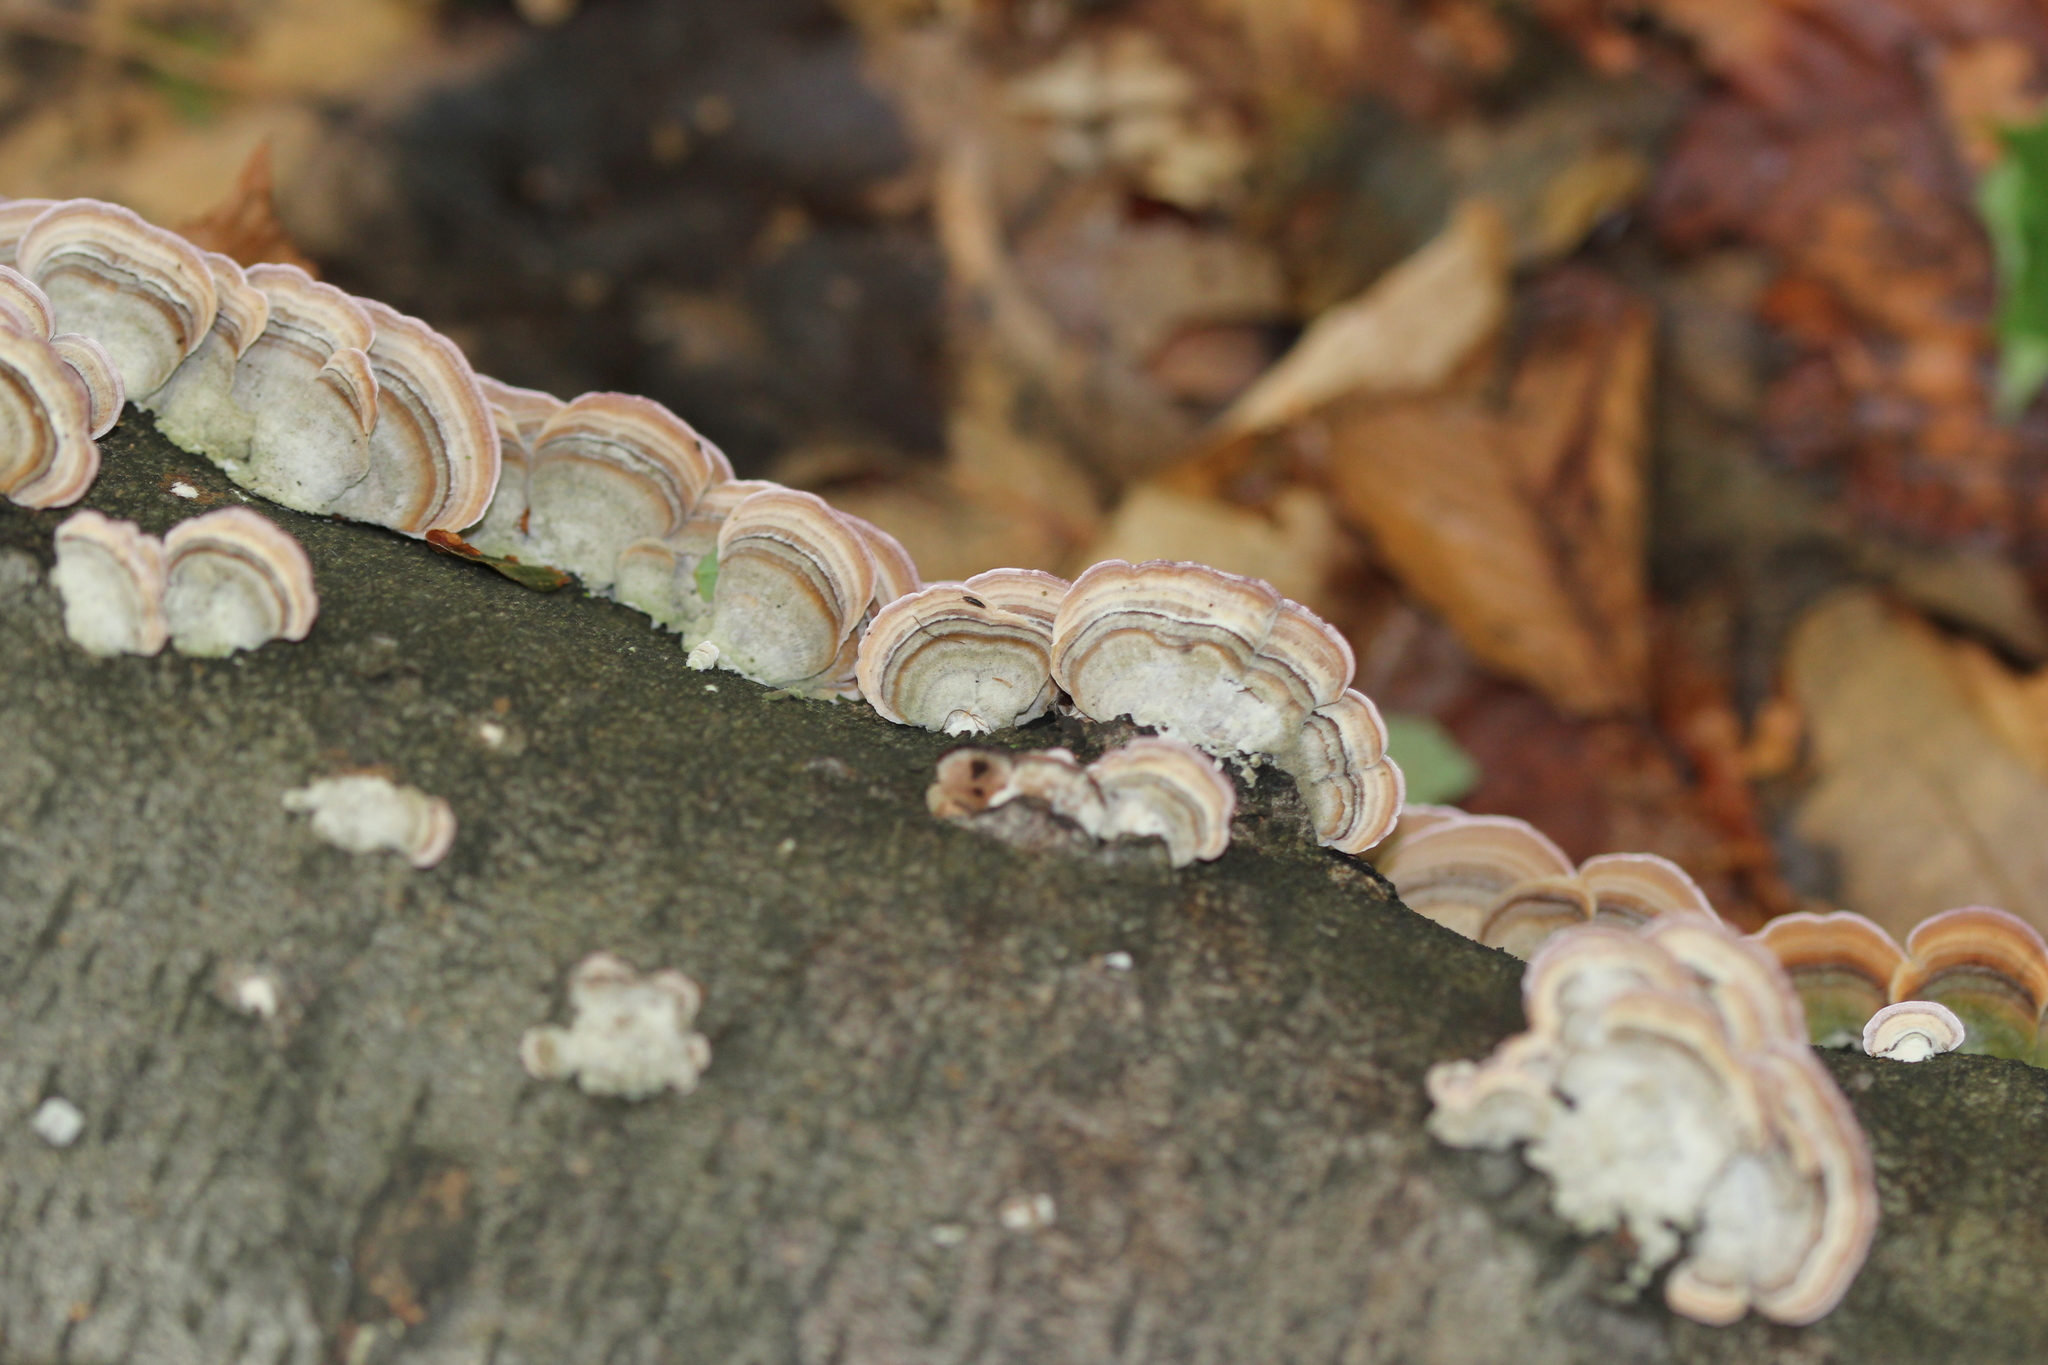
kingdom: Fungi
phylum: Basidiomycota
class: Agaricomycetes
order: Polyporales
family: Polyporaceae
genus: Trametes
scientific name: Trametes versicolor
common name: Turkeytail
